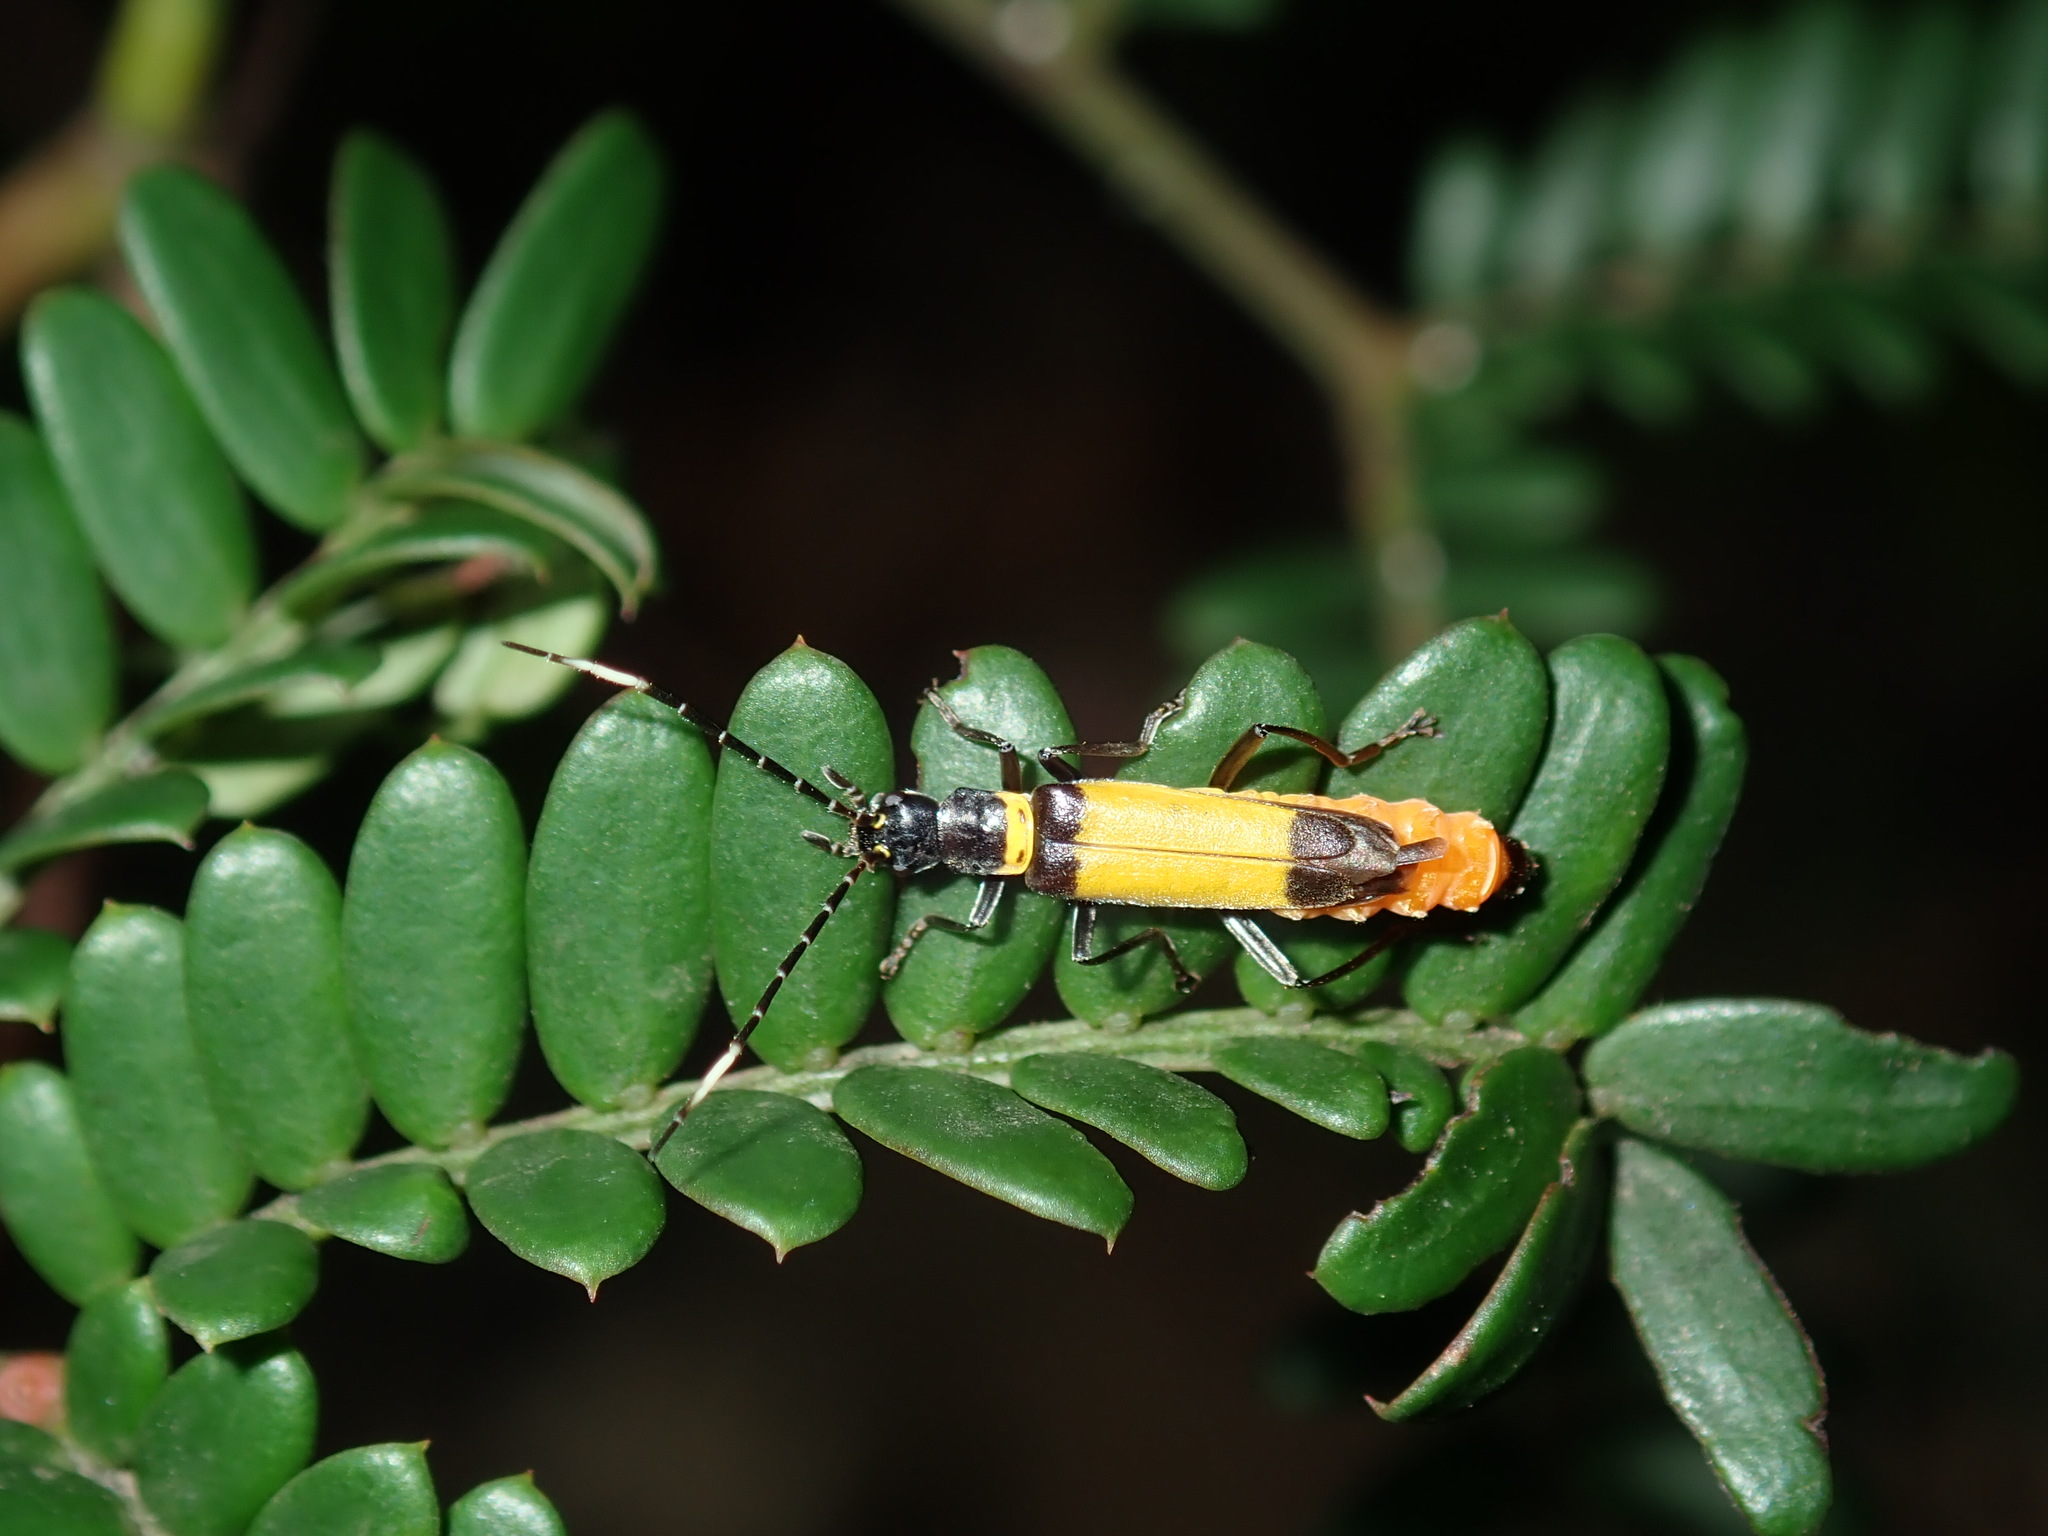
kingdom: Animalia
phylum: Arthropoda
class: Insecta
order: Coleoptera
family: Cantharidae
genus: Chauliognathus
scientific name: Chauliognathus
